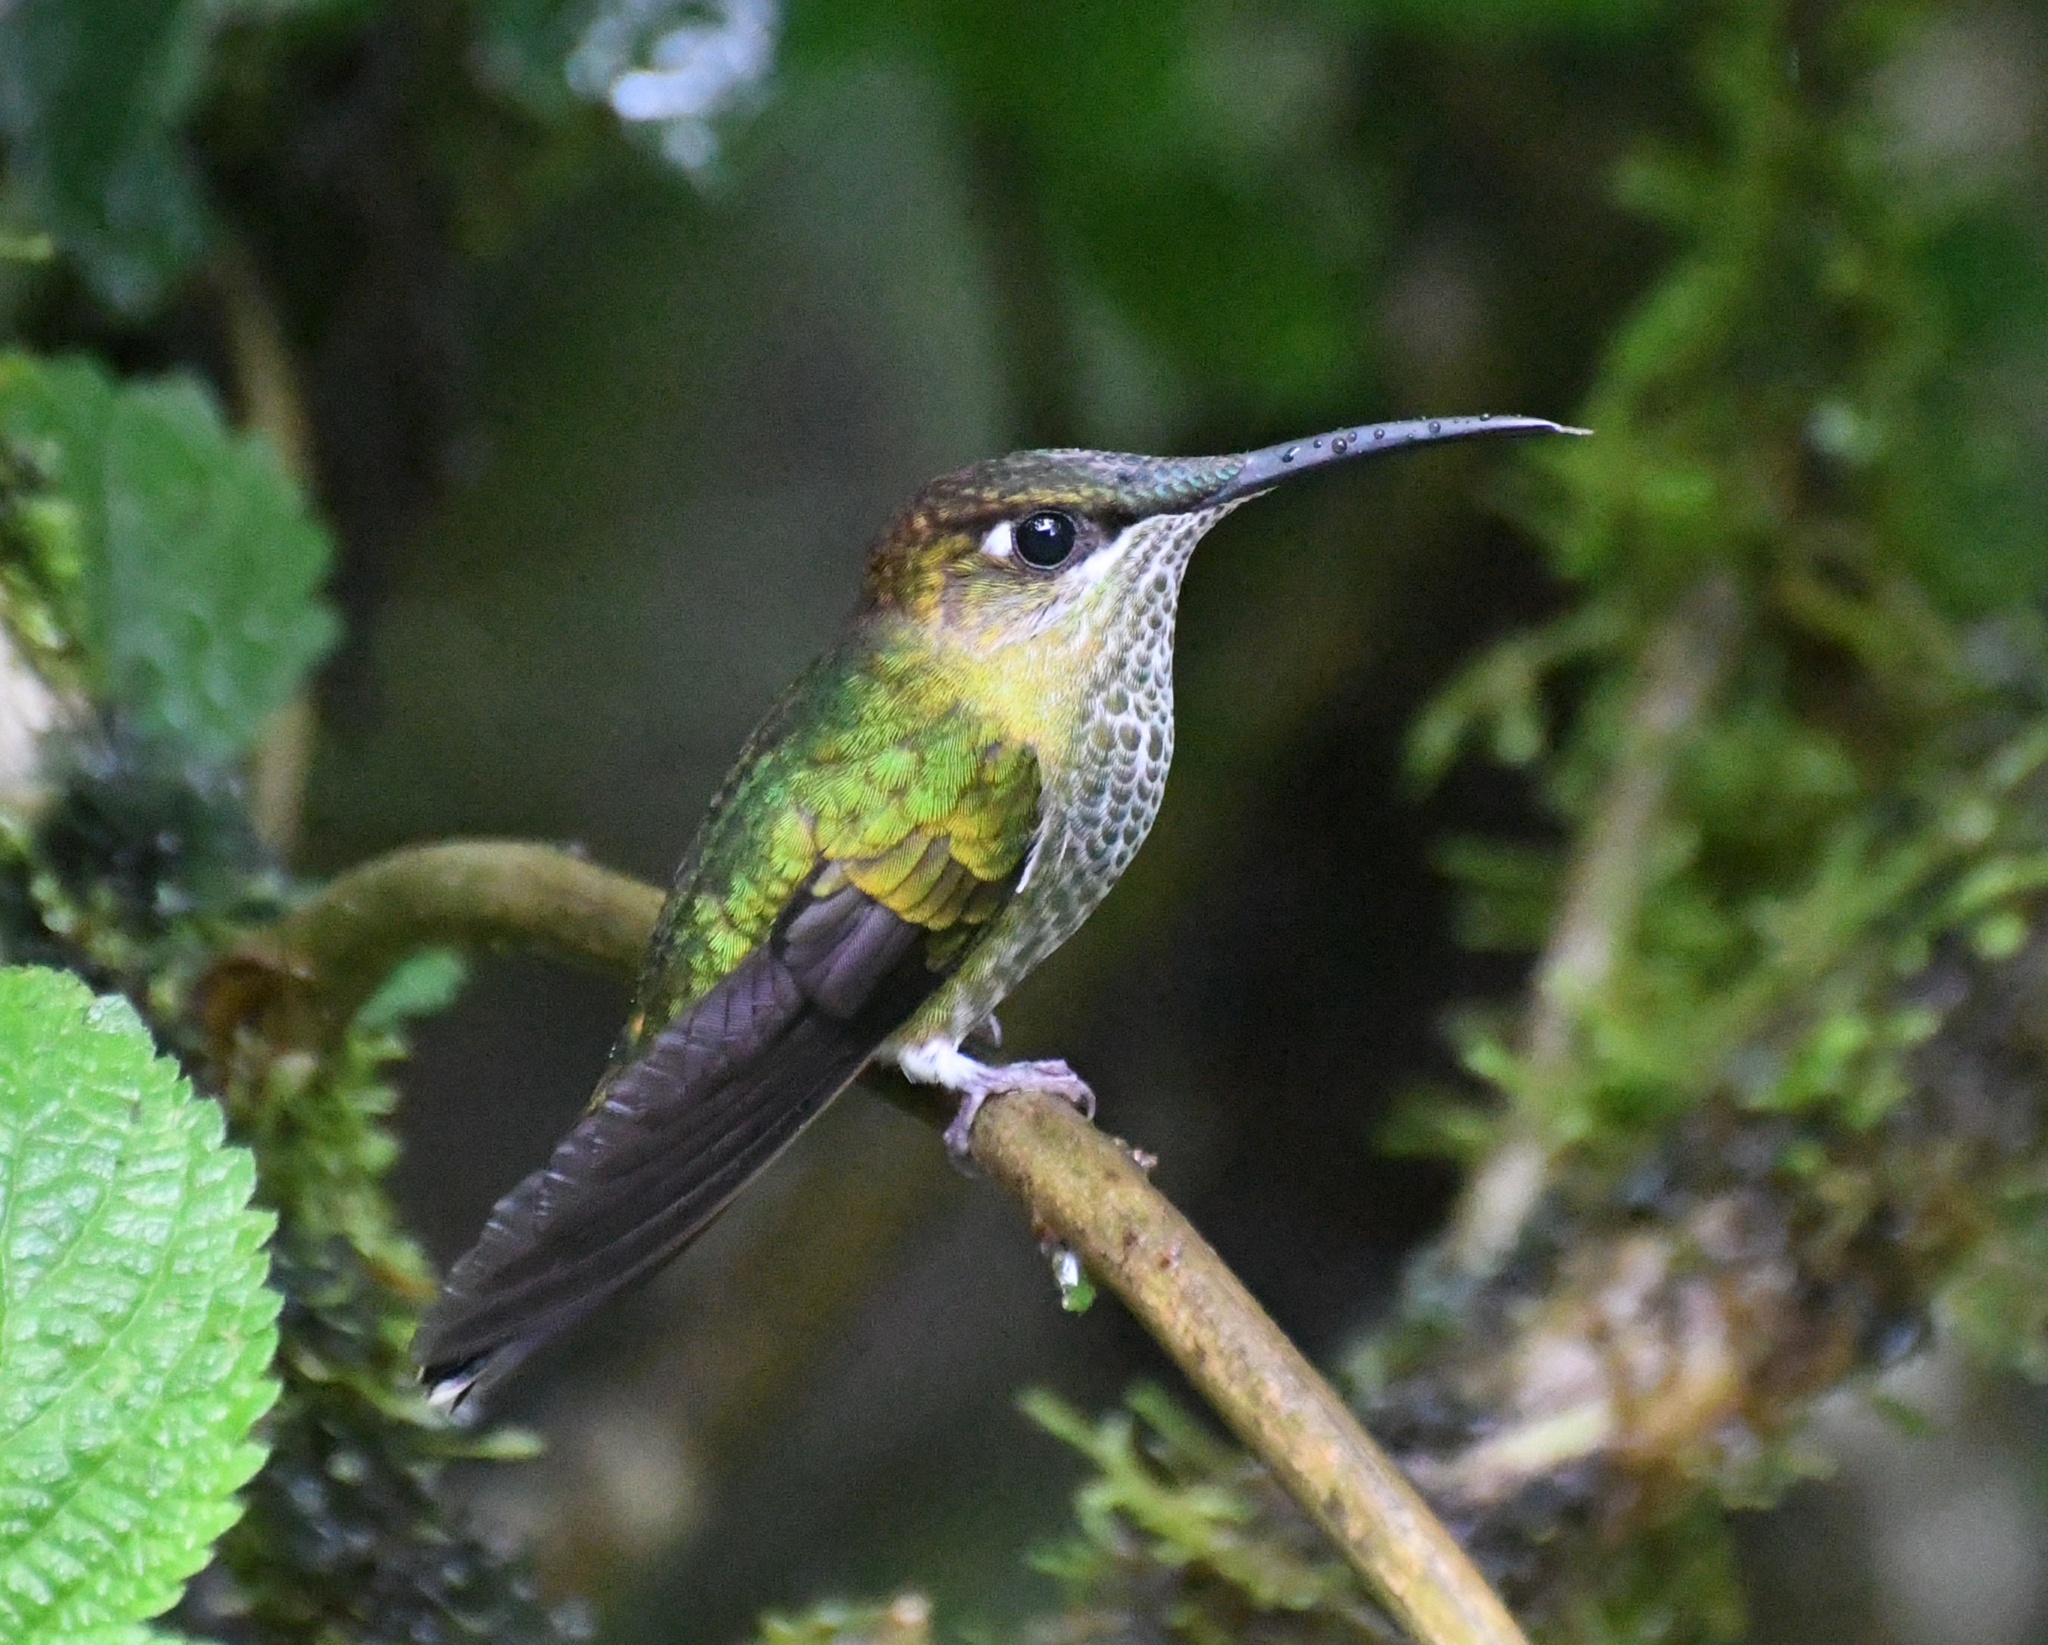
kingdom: Animalia
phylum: Chordata
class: Aves
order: Apodiformes
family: Trochilidae
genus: Heliodoxa
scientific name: Heliodoxa leadbeateri
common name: Violet-fronted brilliant
